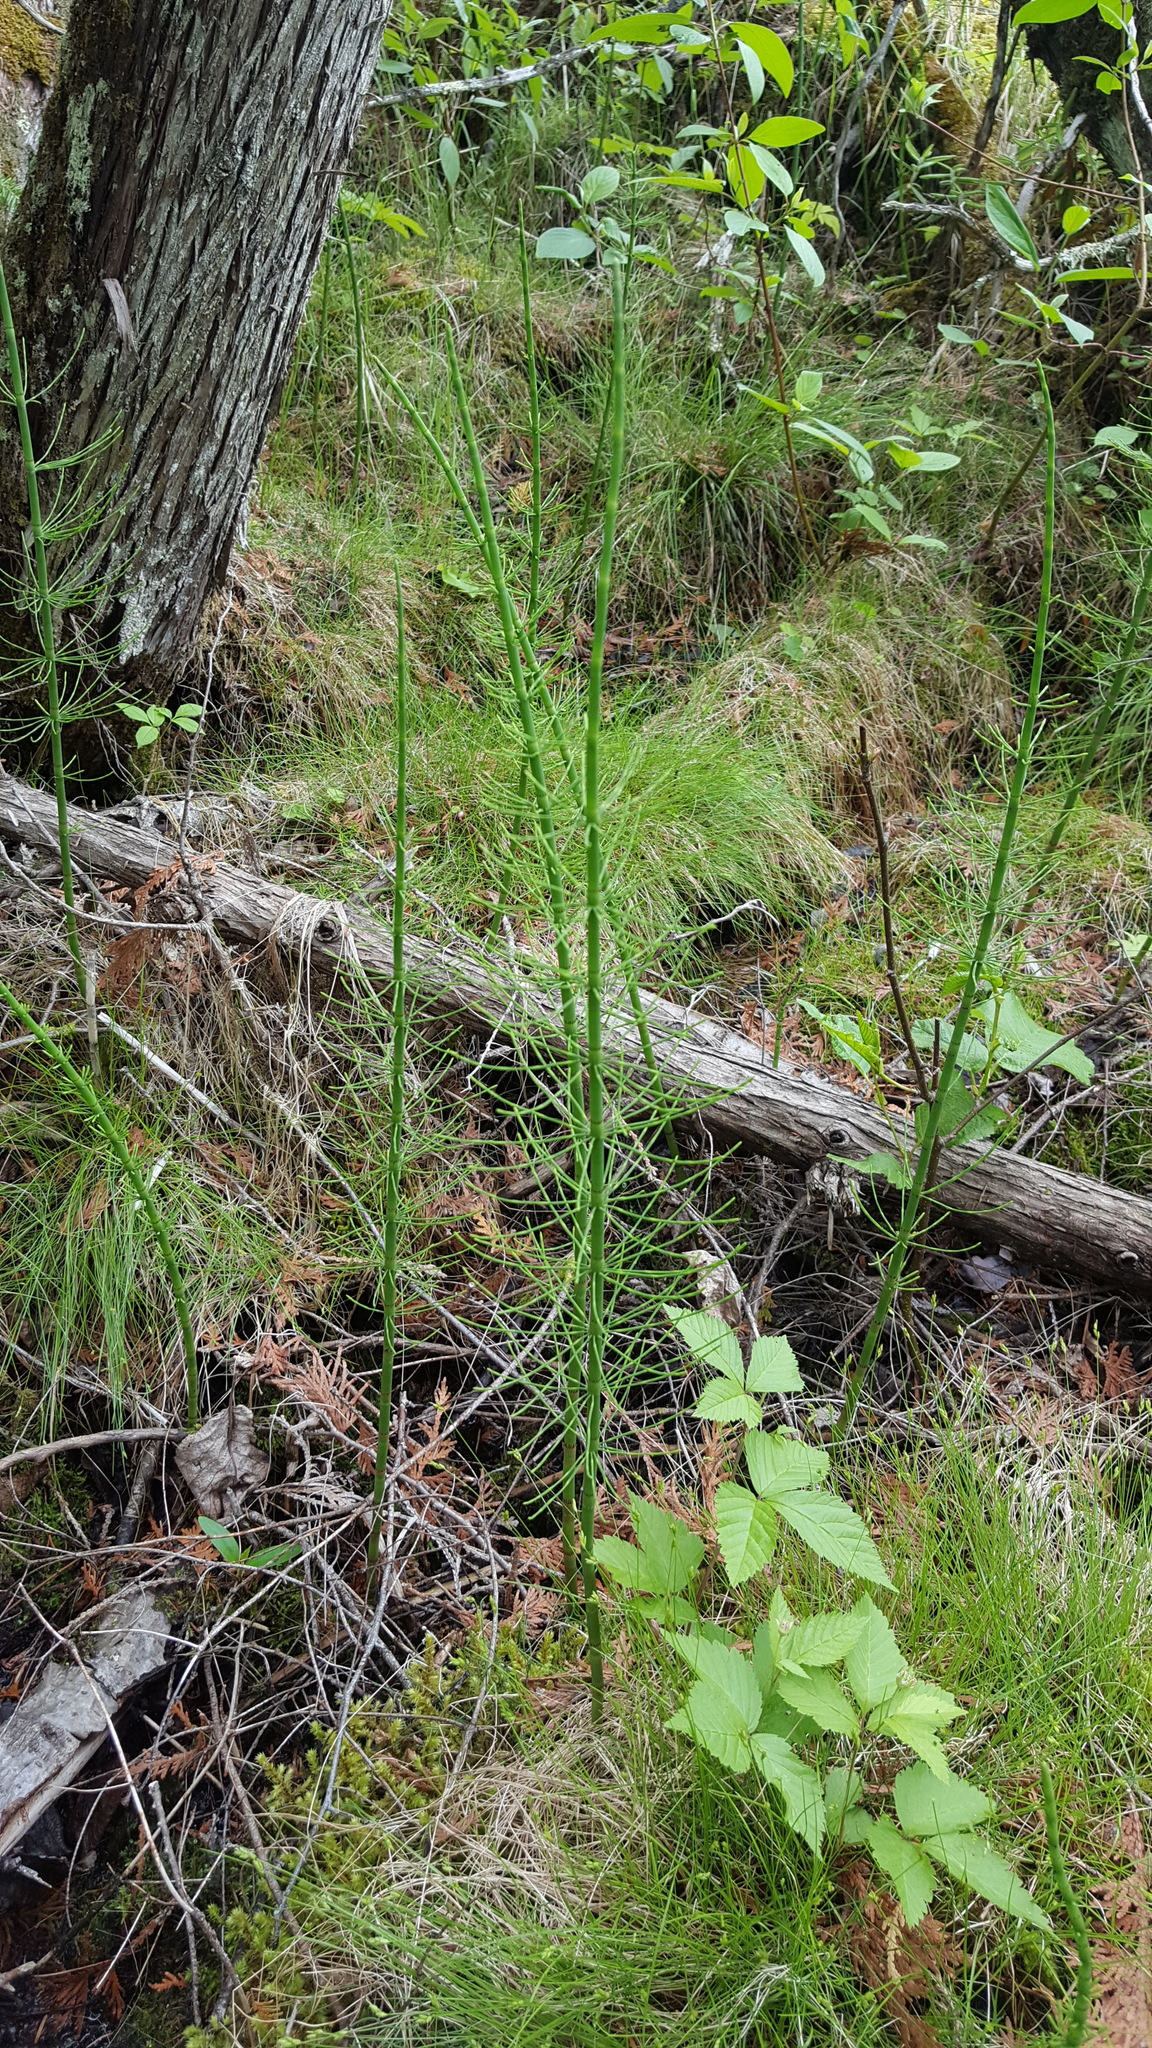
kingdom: Plantae
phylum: Tracheophyta
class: Polypodiopsida
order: Equisetales
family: Equisetaceae
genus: Equisetum
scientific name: Equisetum fluviatile
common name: Water horsetail
